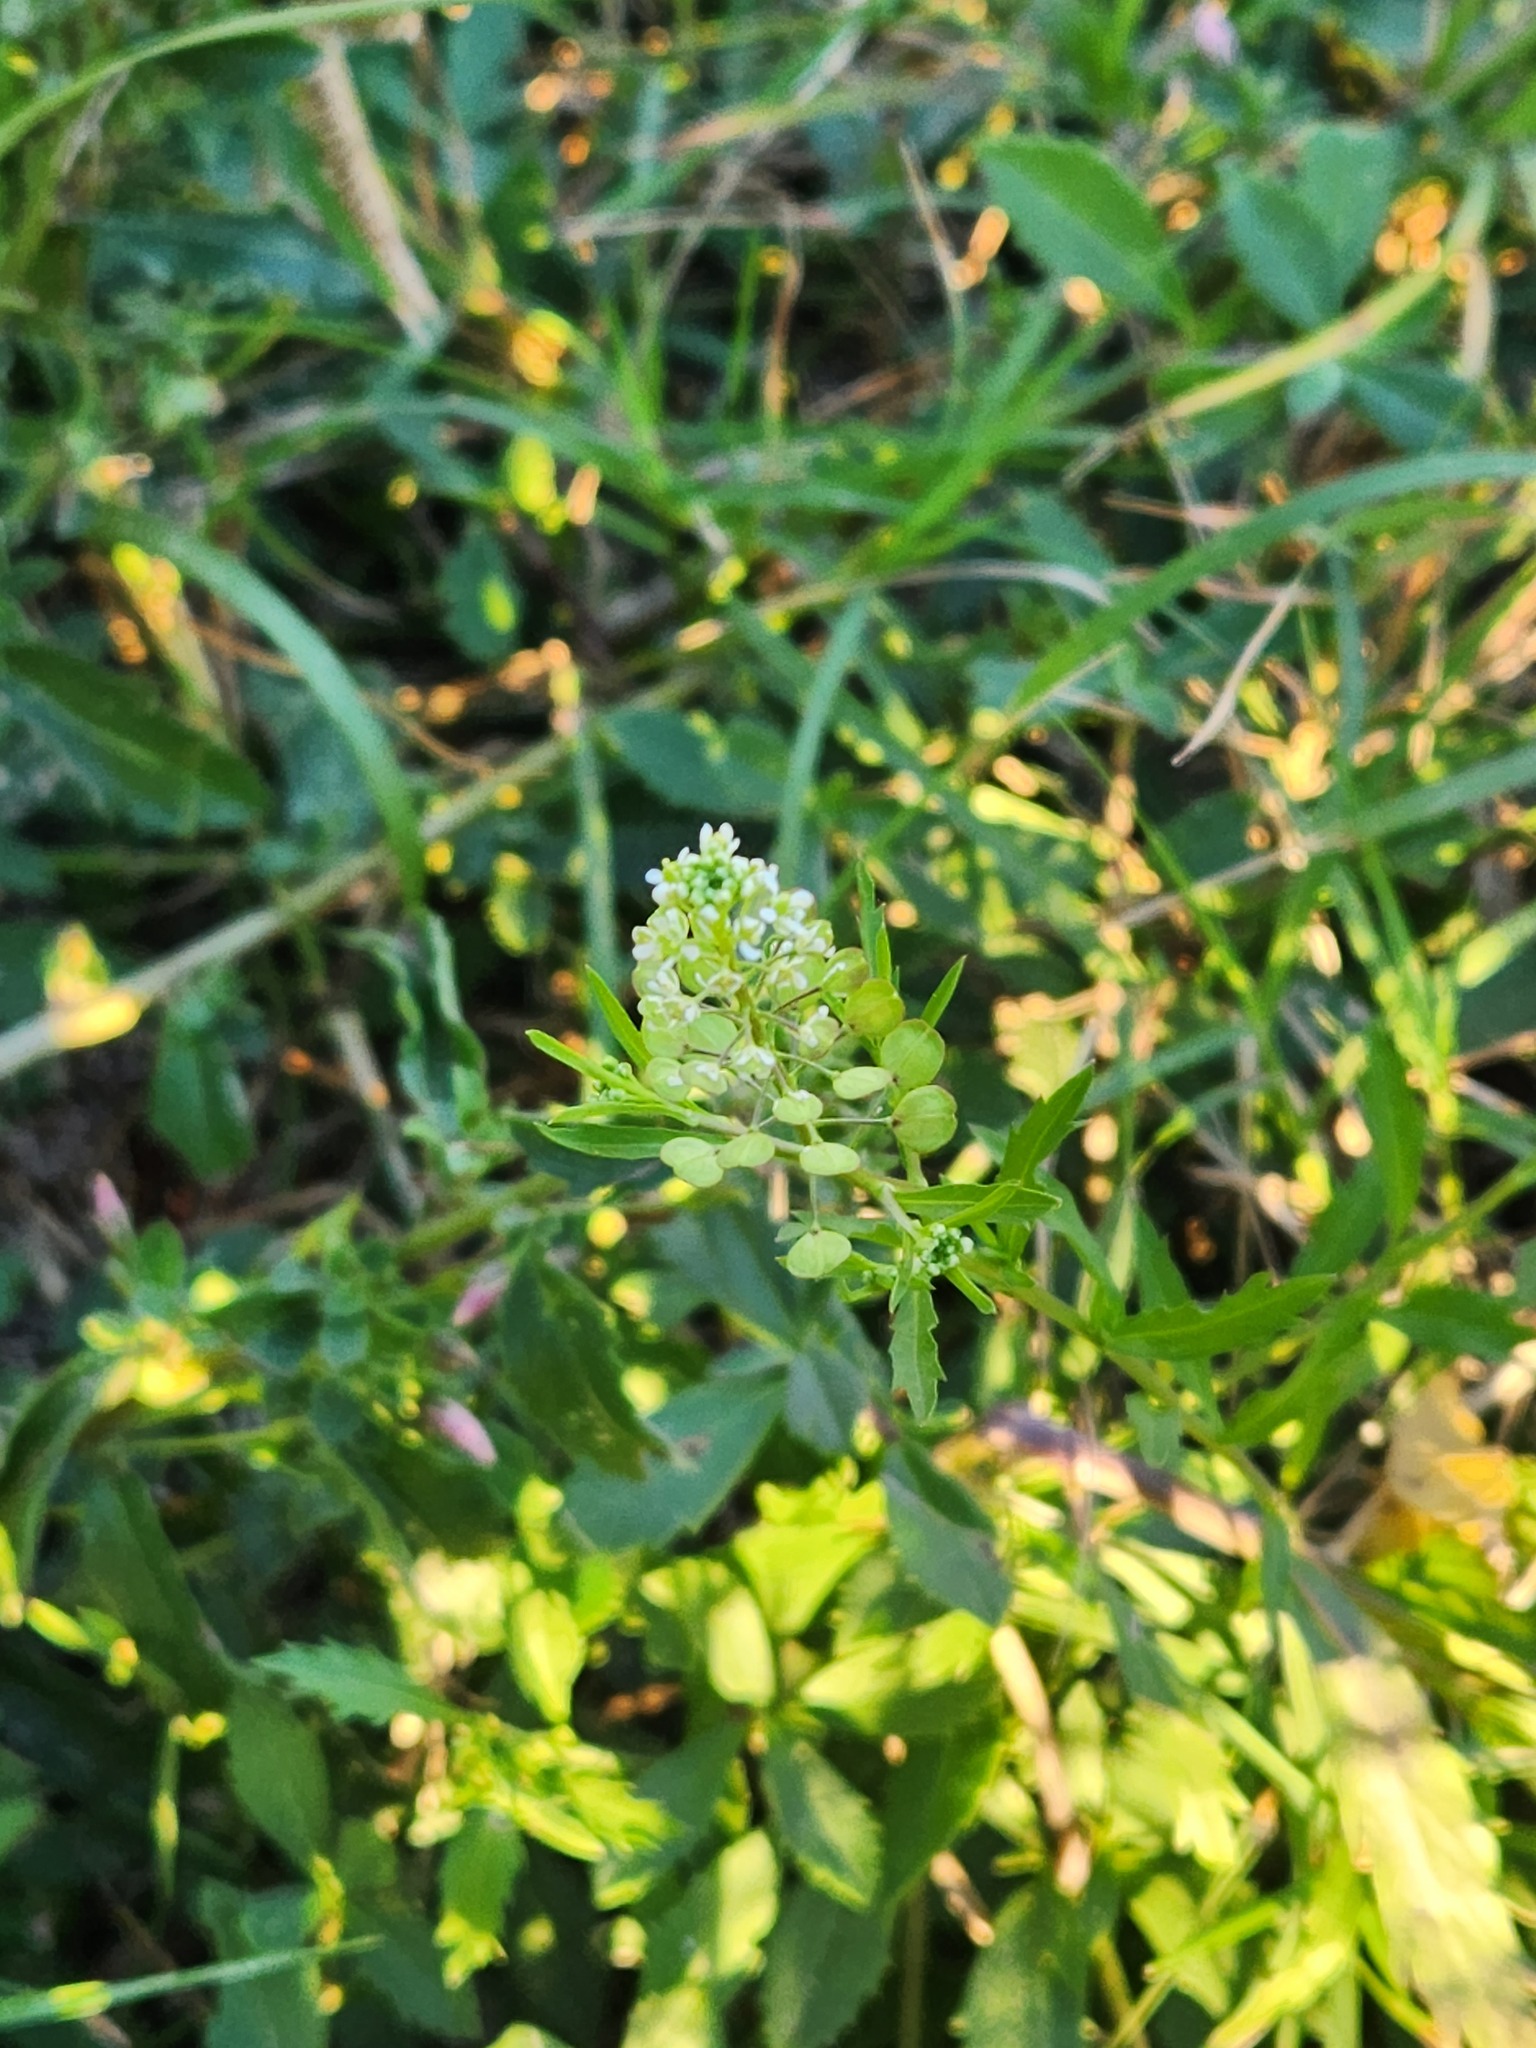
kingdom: Plantae
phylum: Tracheophyta
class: Magnoliopsida
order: Brassicales
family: Brassicaceae
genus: Lepidium
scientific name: Lepidium virginicum
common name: Least pepperwort
